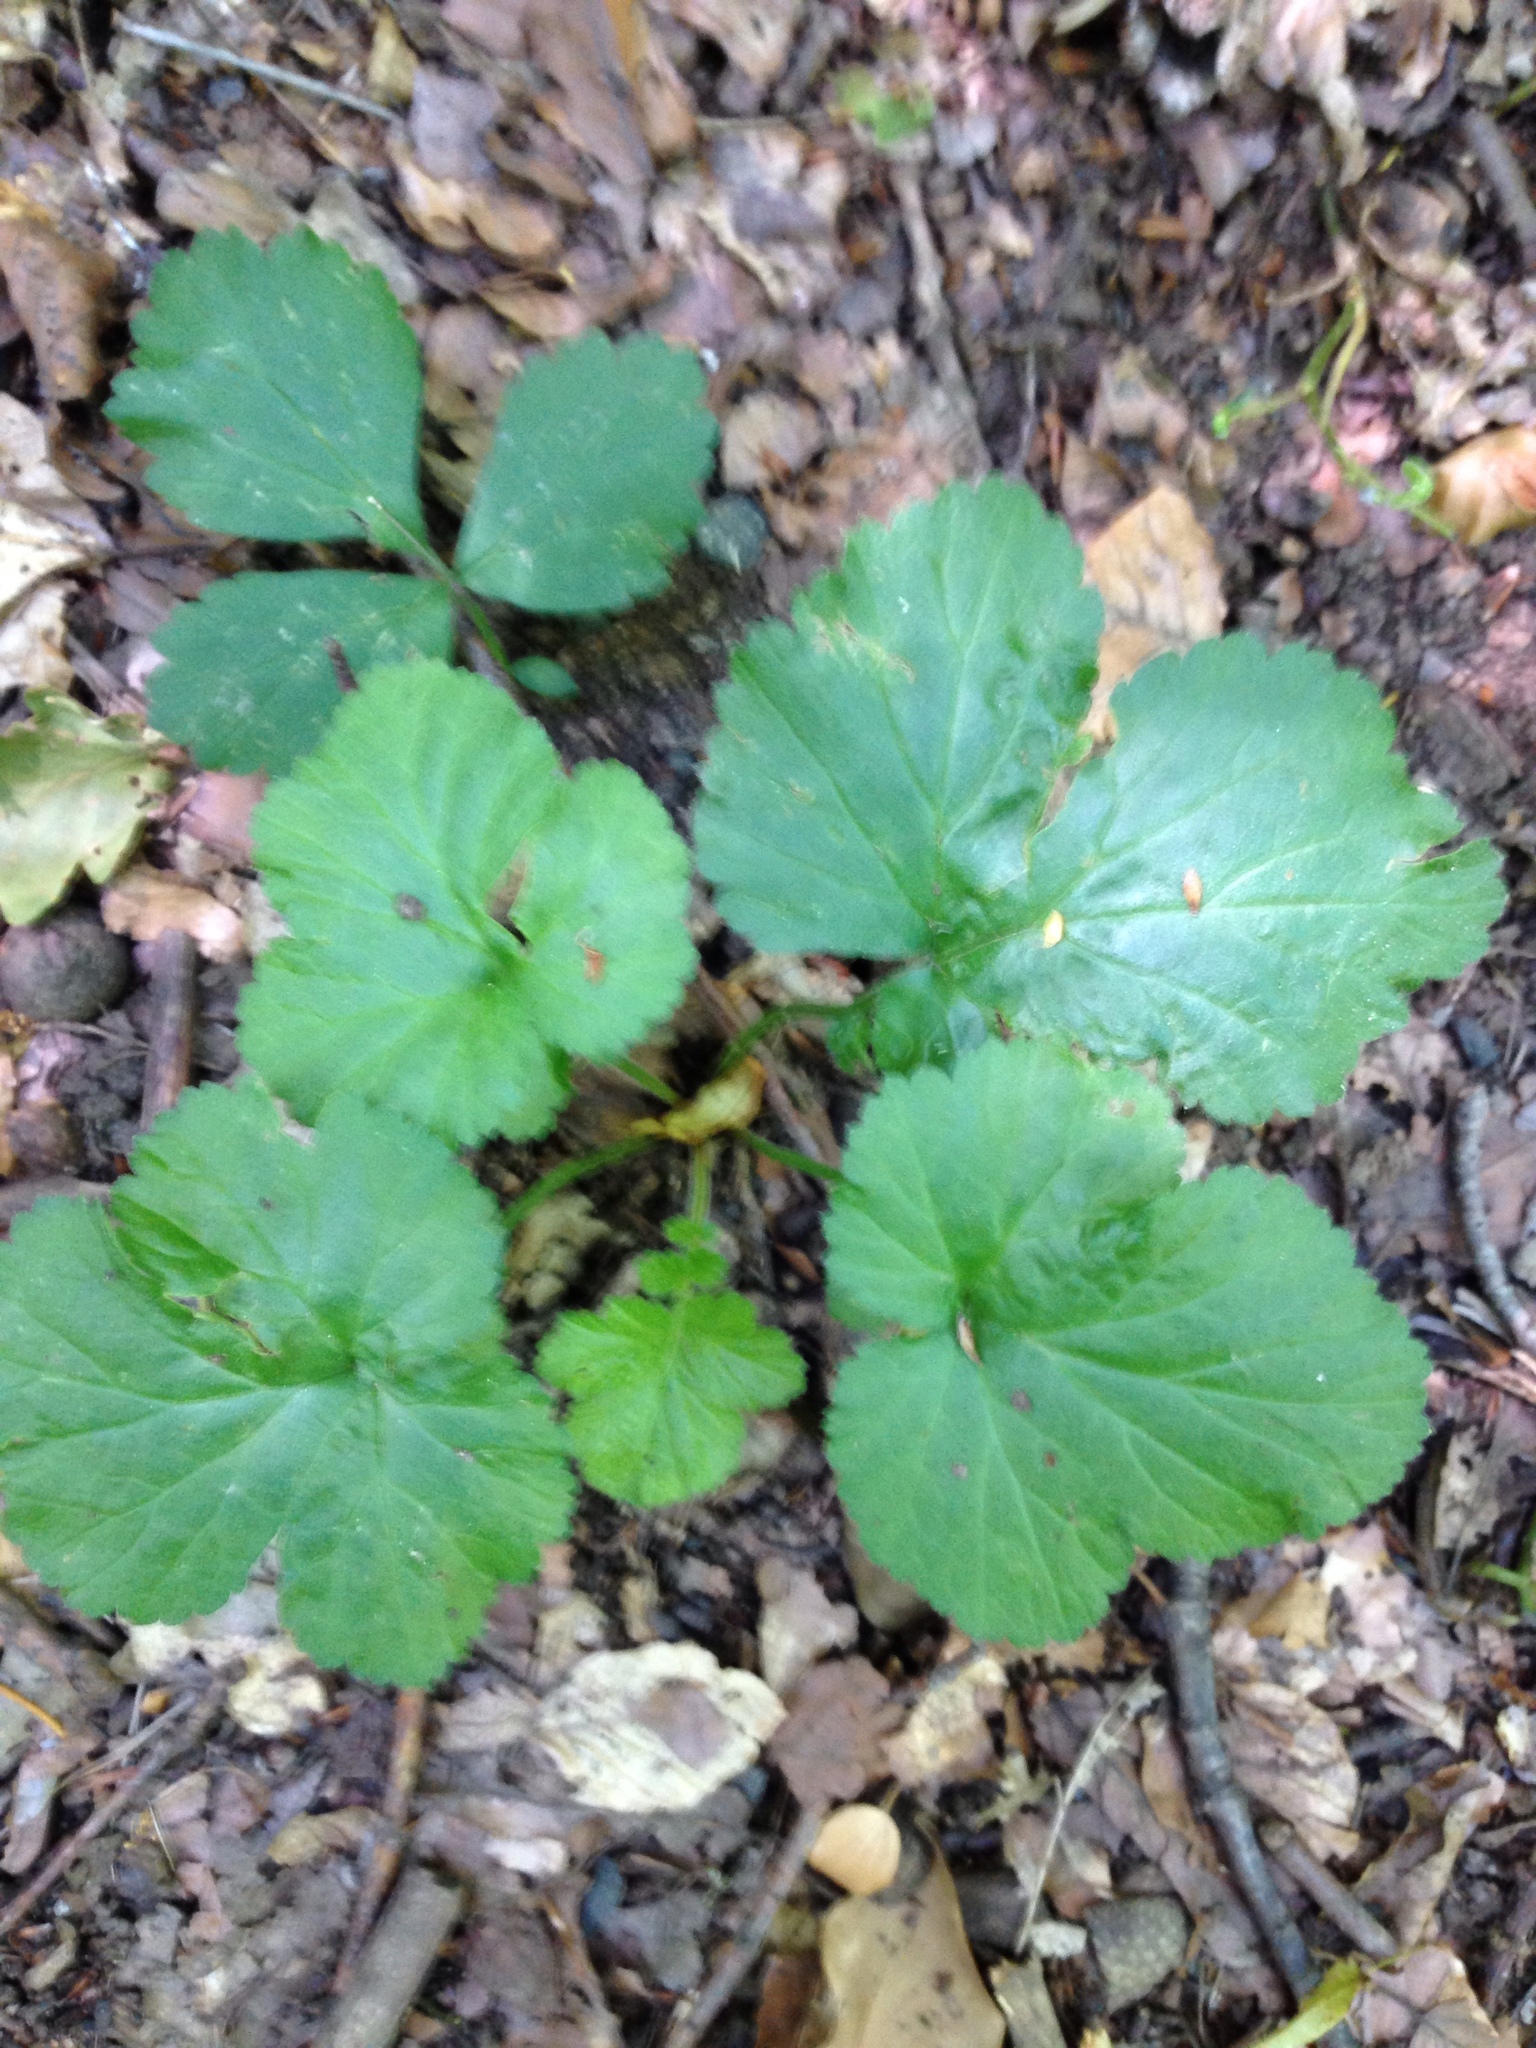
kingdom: Plantae
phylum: Tracheophyta
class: Magnoliopsida
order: Rosales
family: Rosaceae
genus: Geum
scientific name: Geum urbanum
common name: Wood avens
